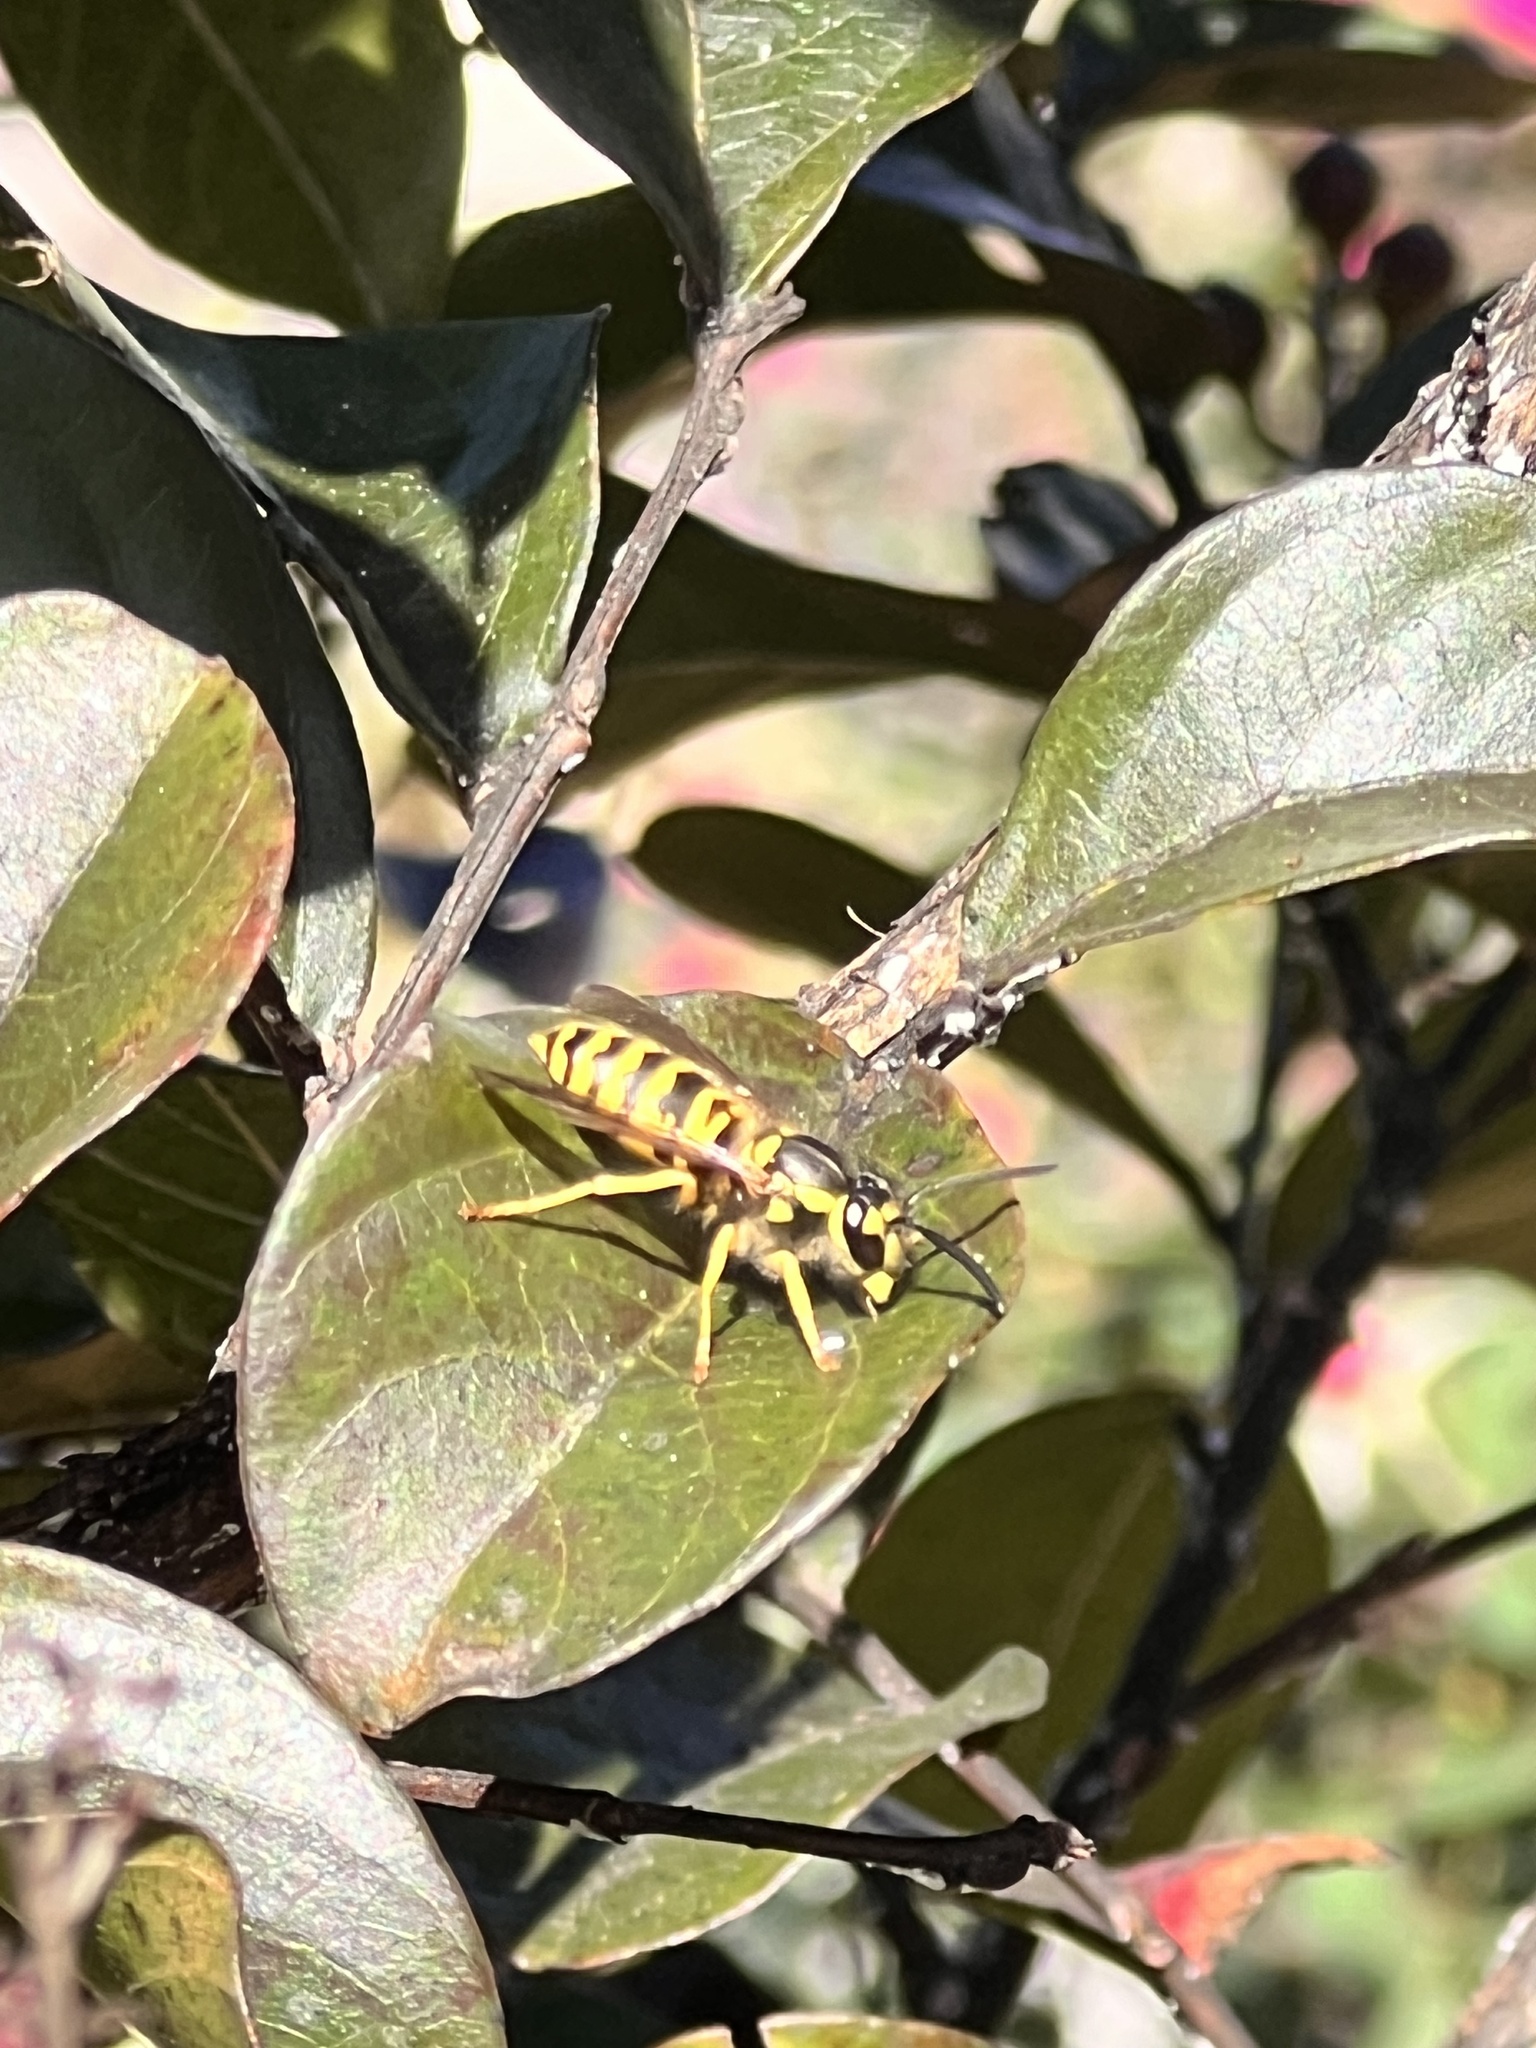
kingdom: Animalia
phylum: Arthropoda
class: Insecta
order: Hymenoptera
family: Vespidae
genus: Vespula
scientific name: Vespula maculifrons
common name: Eastern yellowjacket
